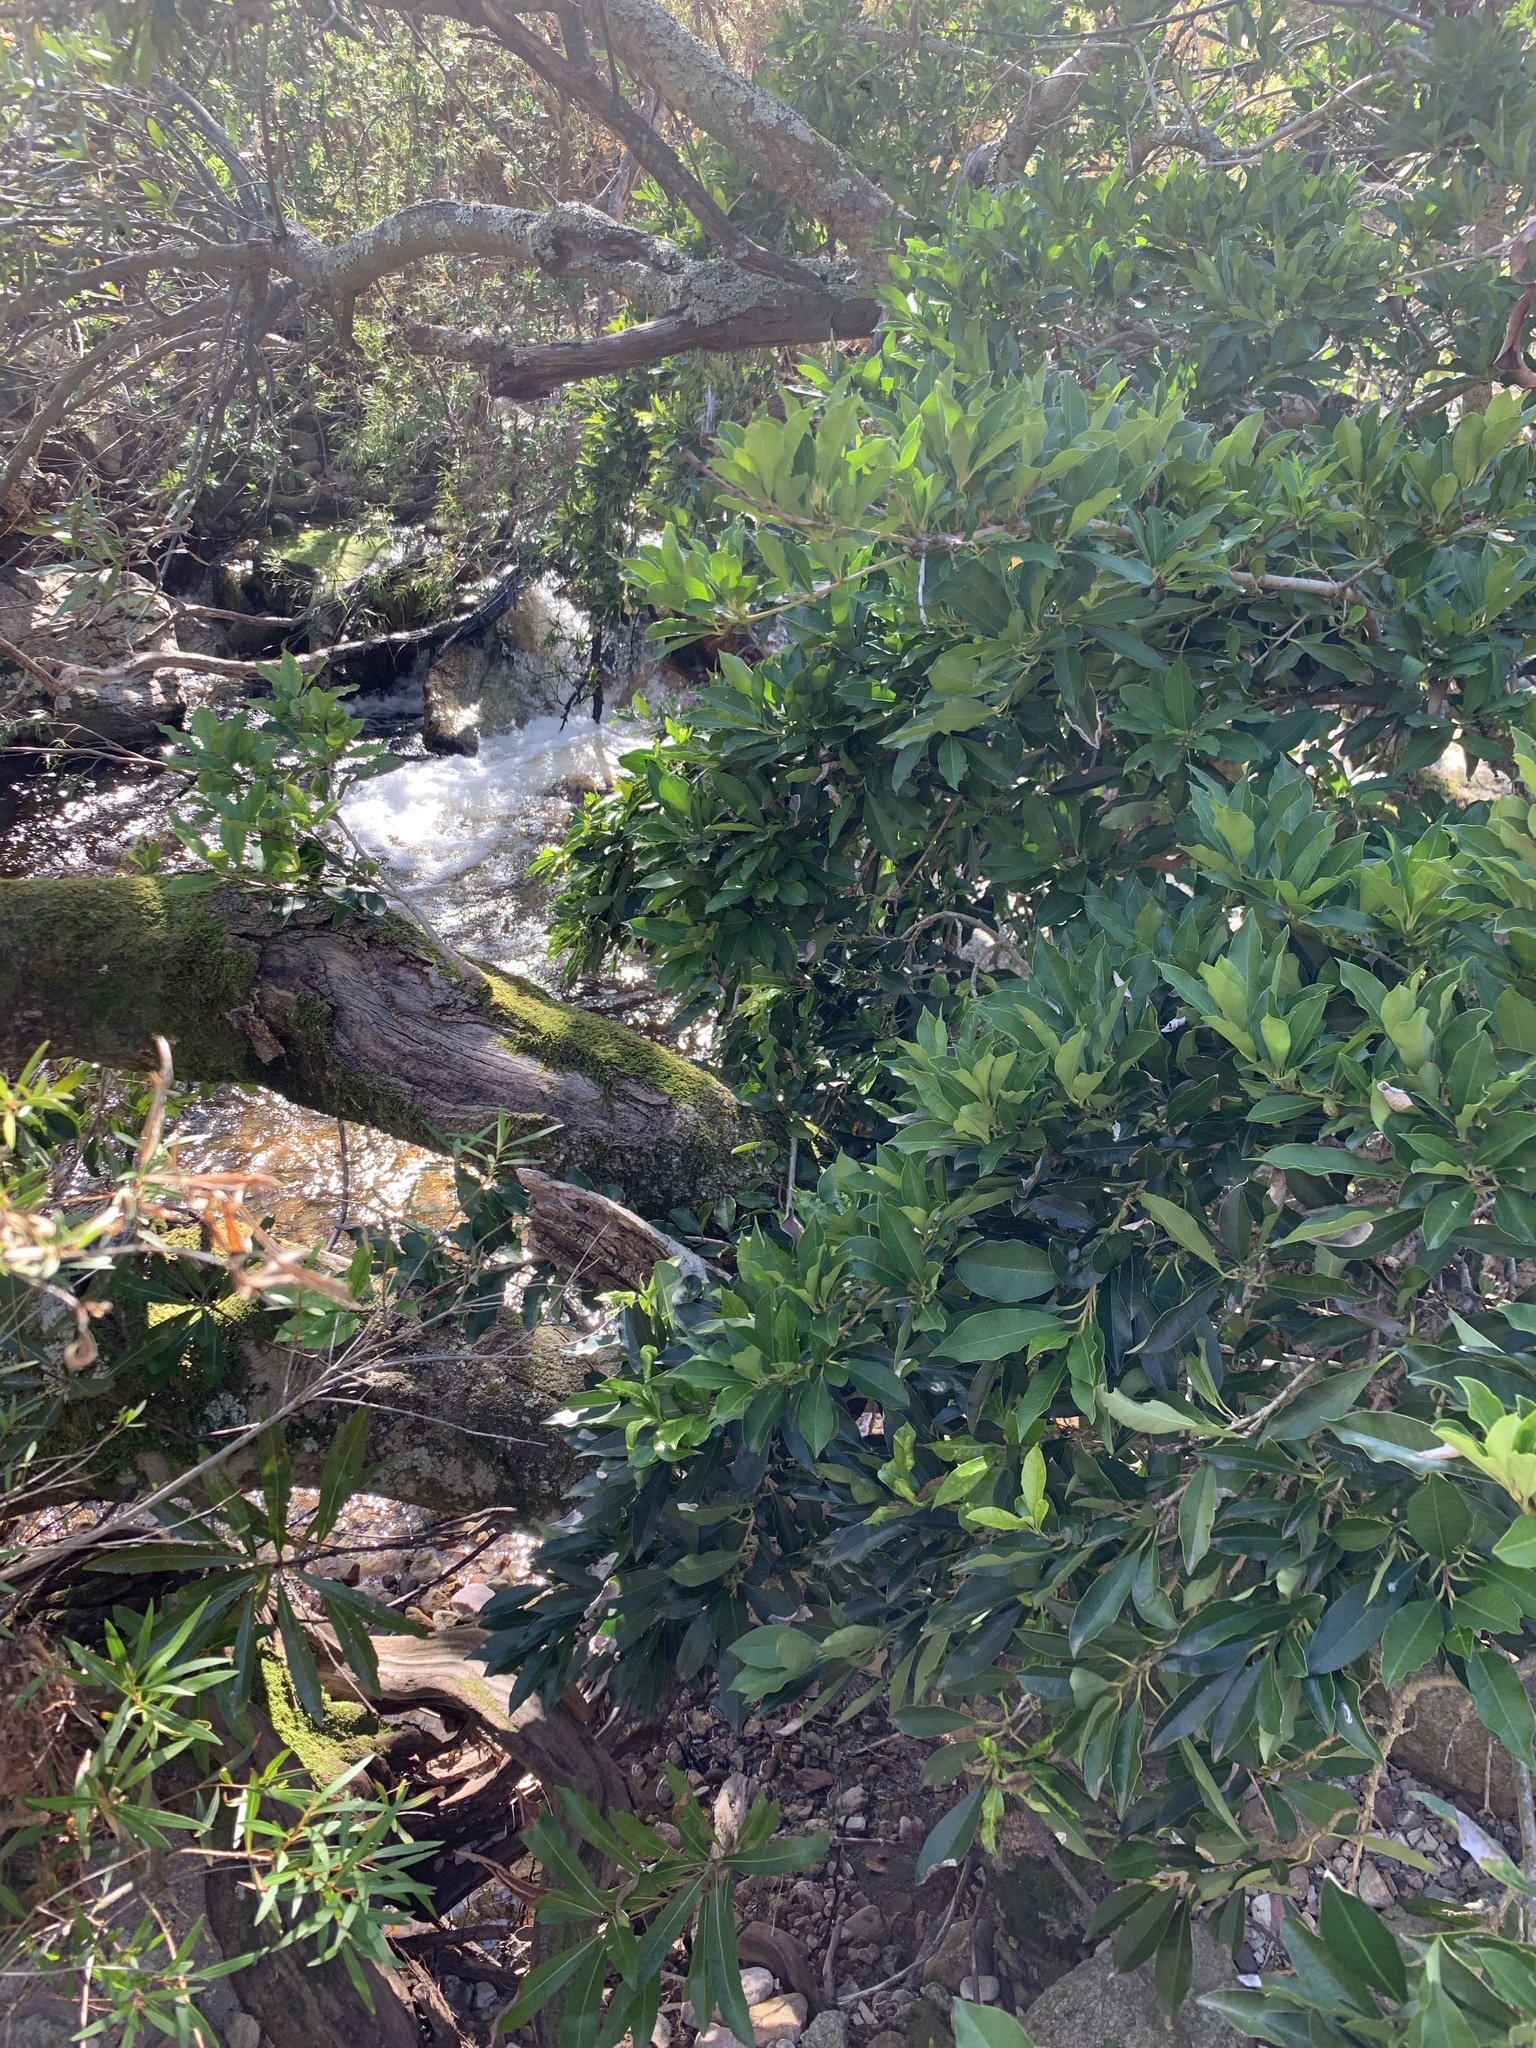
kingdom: Plantae
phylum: Tracheophyta
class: Magnoliopsida
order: Aquifoliales
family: Aquifoliaceae
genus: Ilex
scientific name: Ilex mitis
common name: African holly
